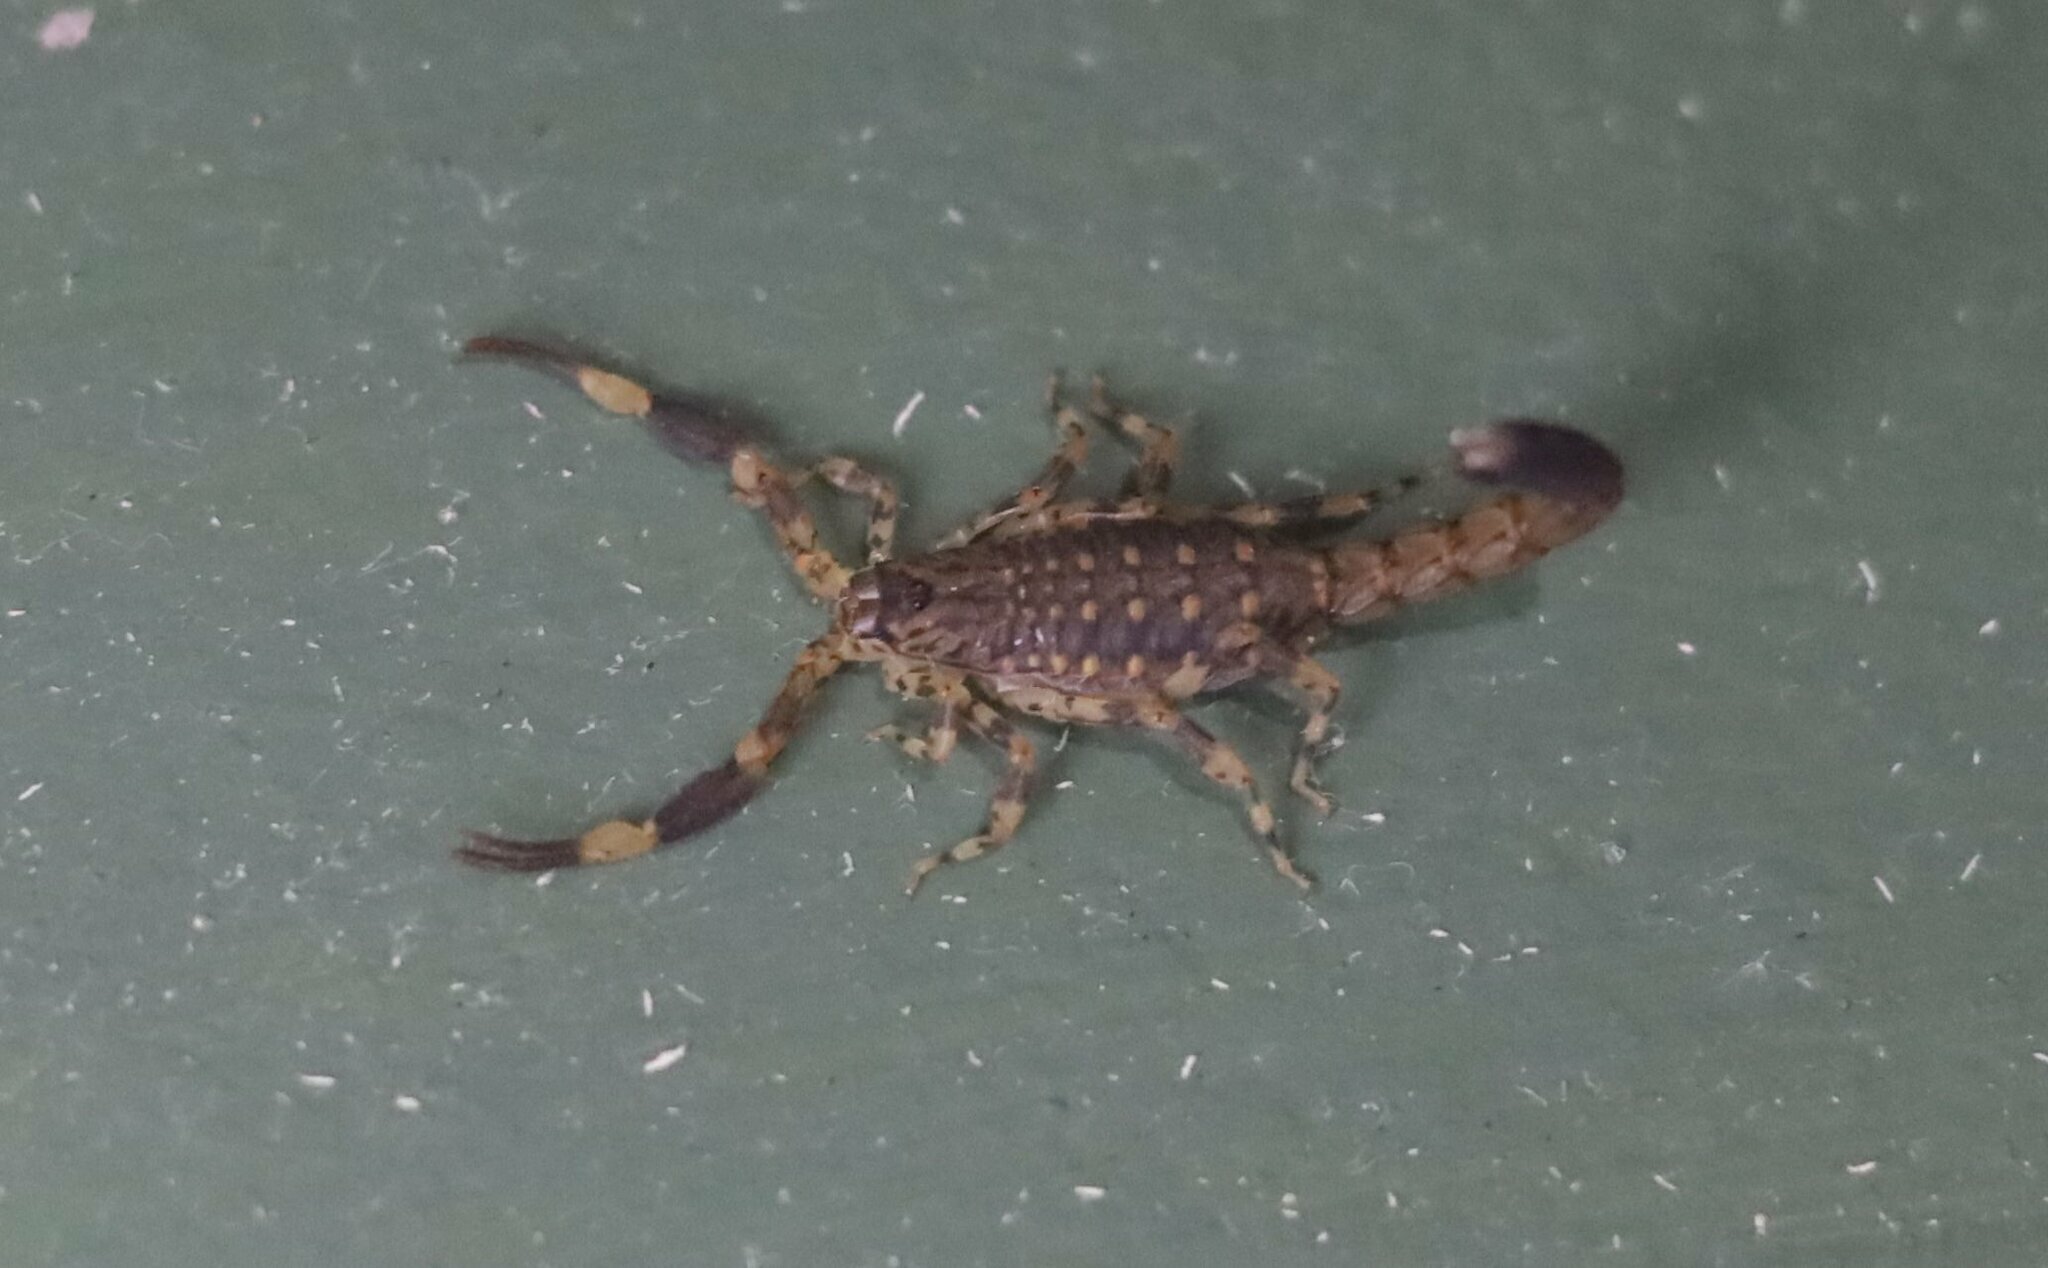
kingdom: Animalia
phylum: Arthropoda
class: Arachnida
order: Scorpiones
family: Buthidae
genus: Afrolychas
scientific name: Afrolychas burdoi
